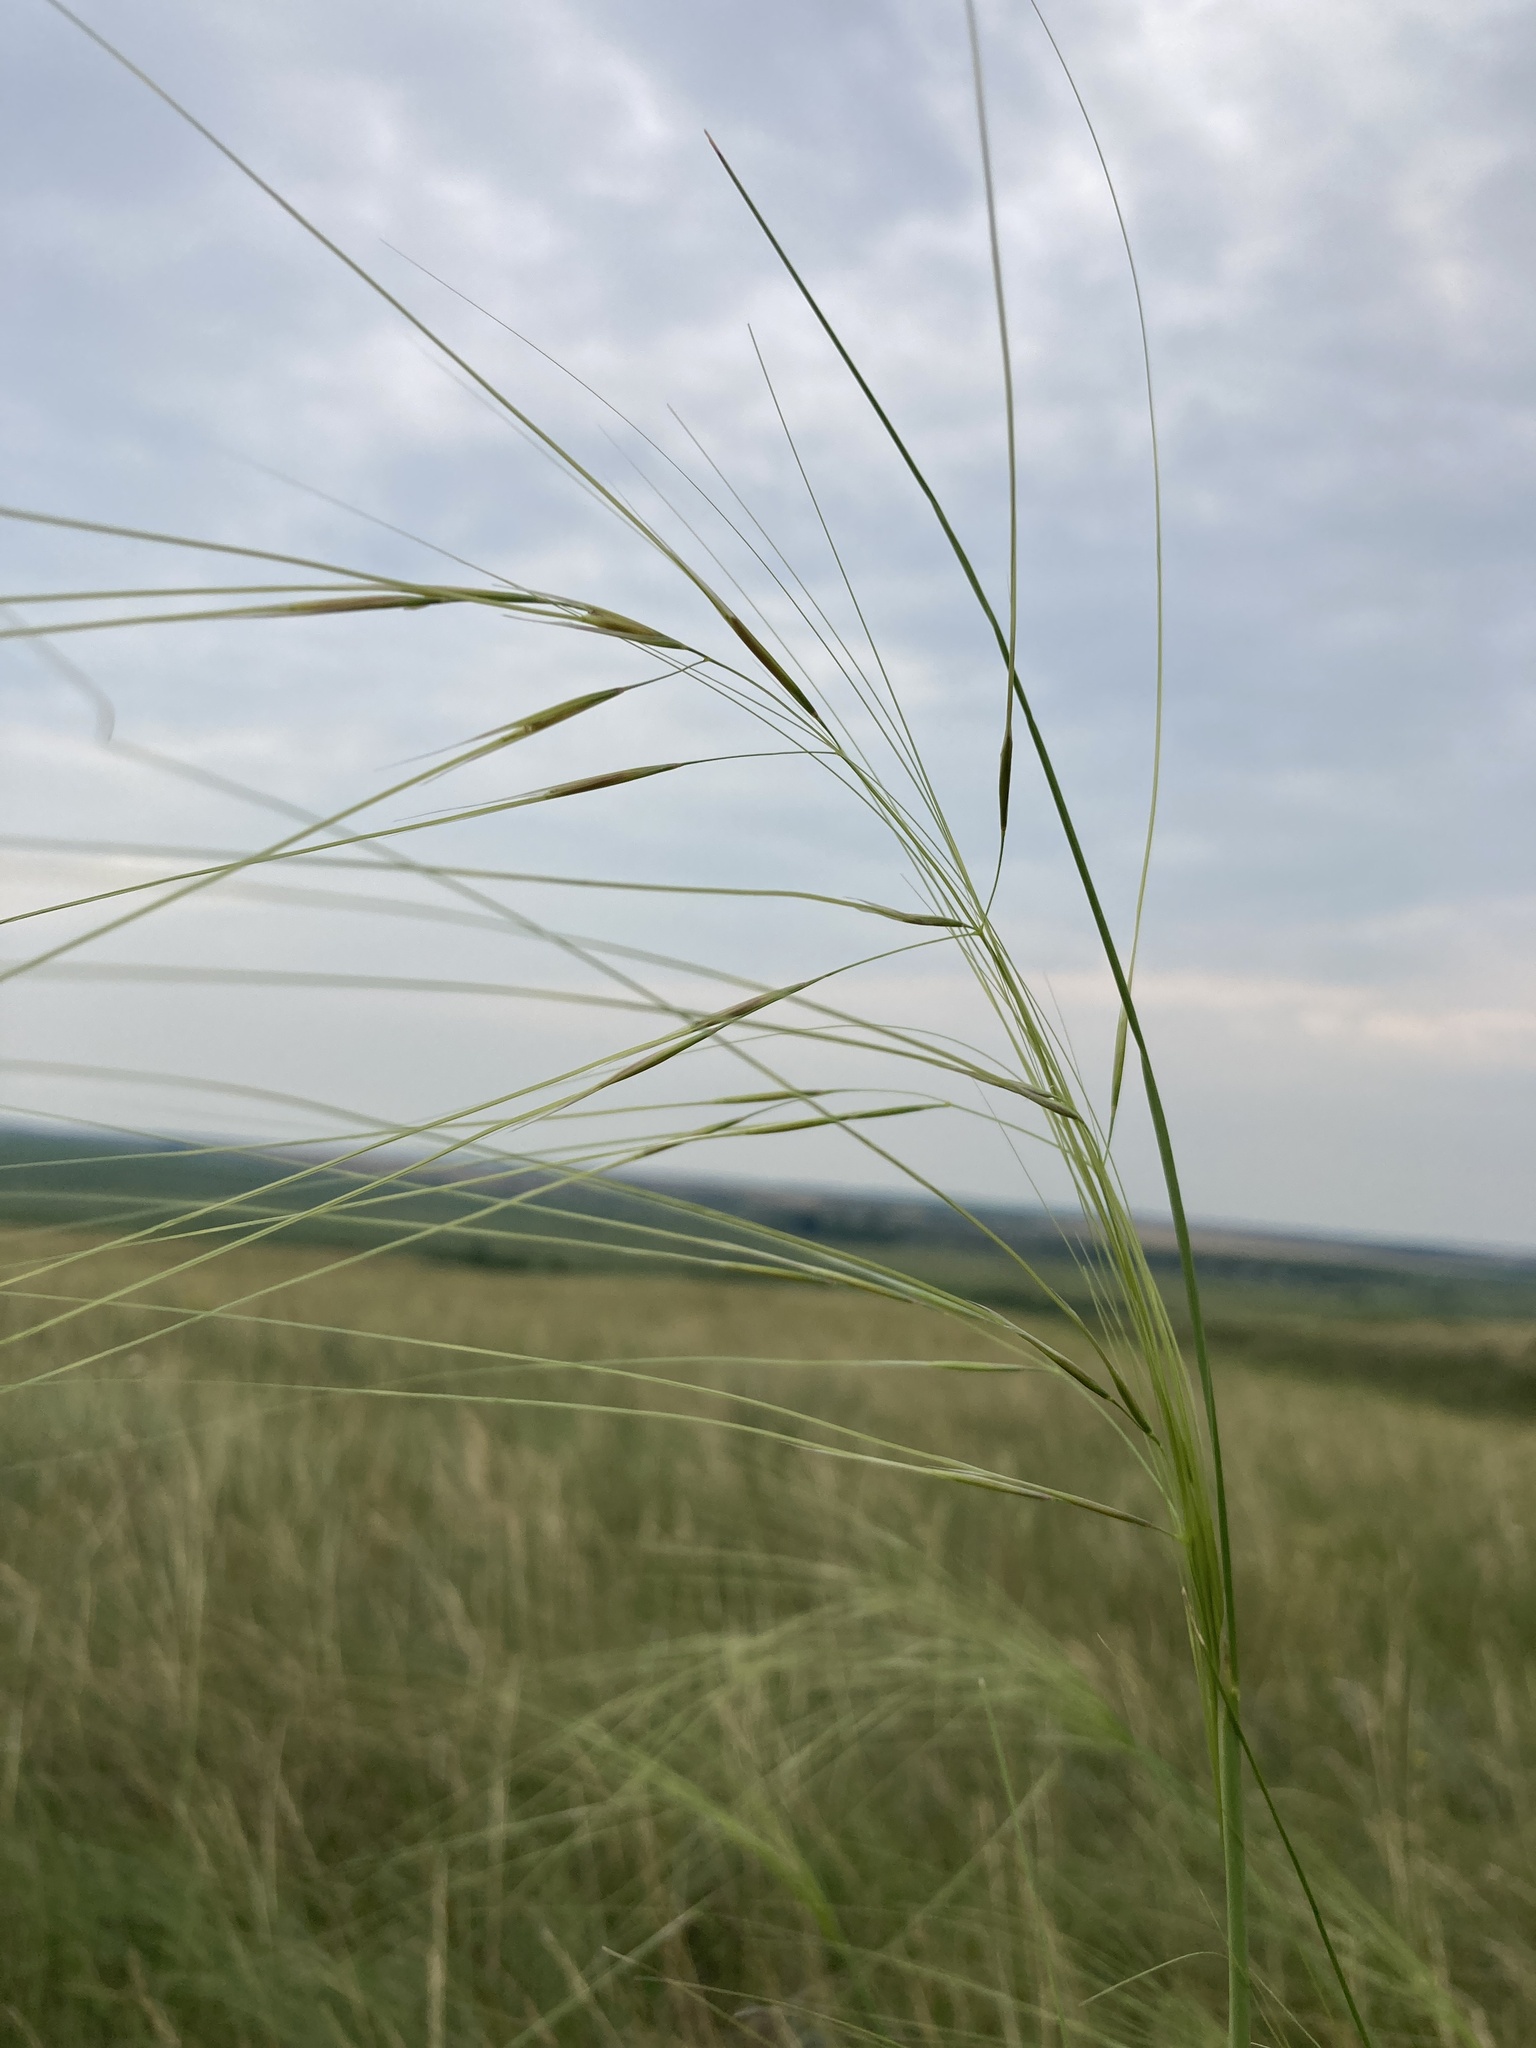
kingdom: Plantae
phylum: Tracheophyta
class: Liliopsida
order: Poales
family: Poaceae
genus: Stipa
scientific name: Stipa capillata
